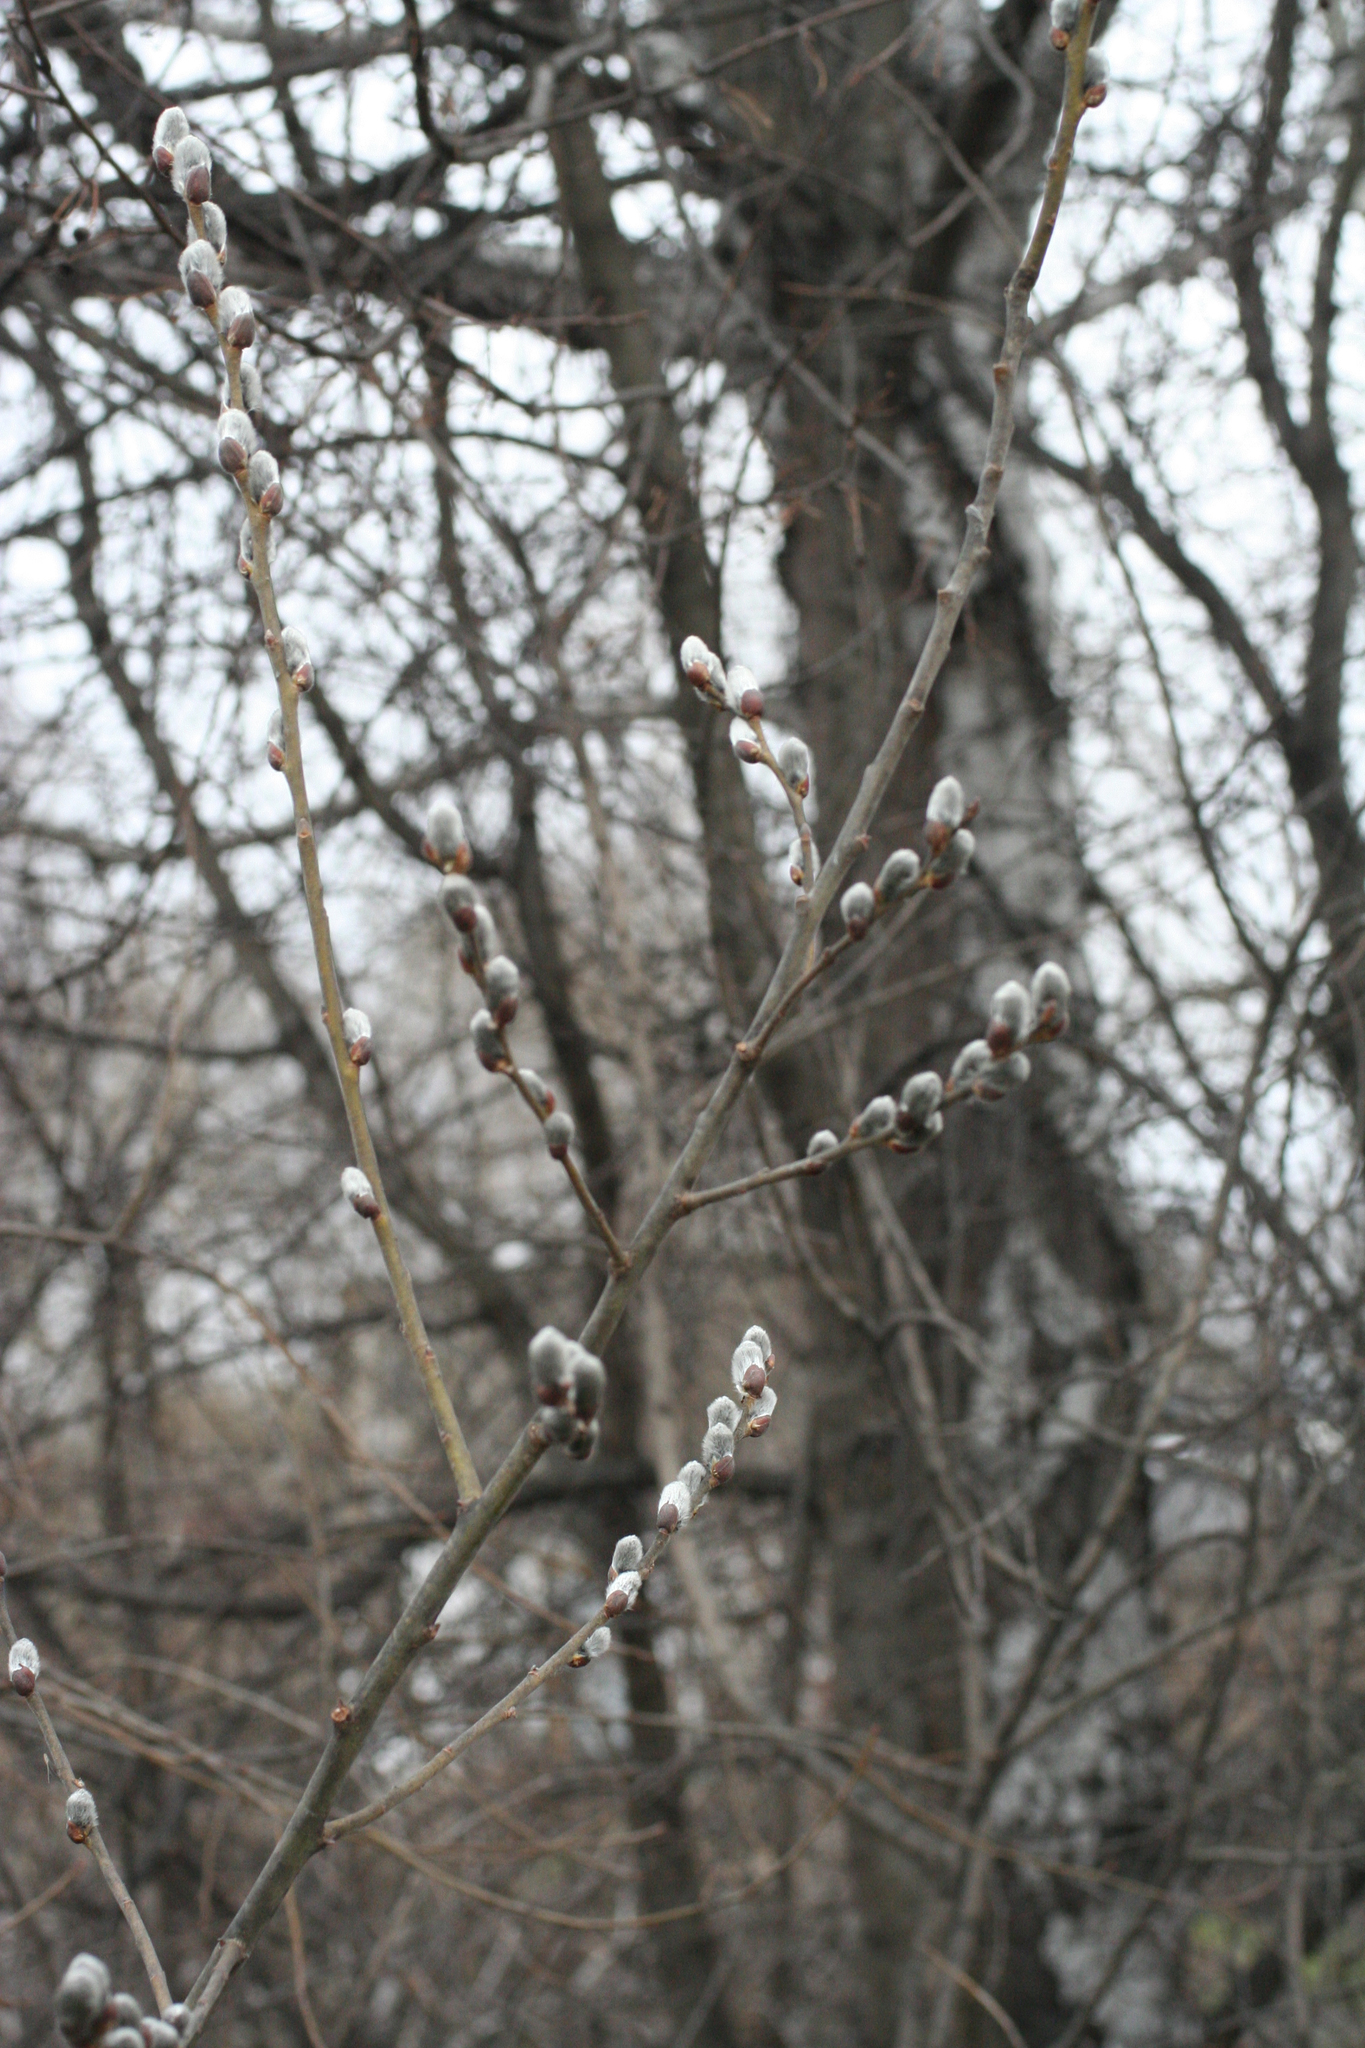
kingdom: Plantae
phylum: Tracheophyta
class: Magnoliopsida
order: Malpighiales
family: Salicaceae
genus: Salix
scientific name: Salix caprea
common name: Goat willow
